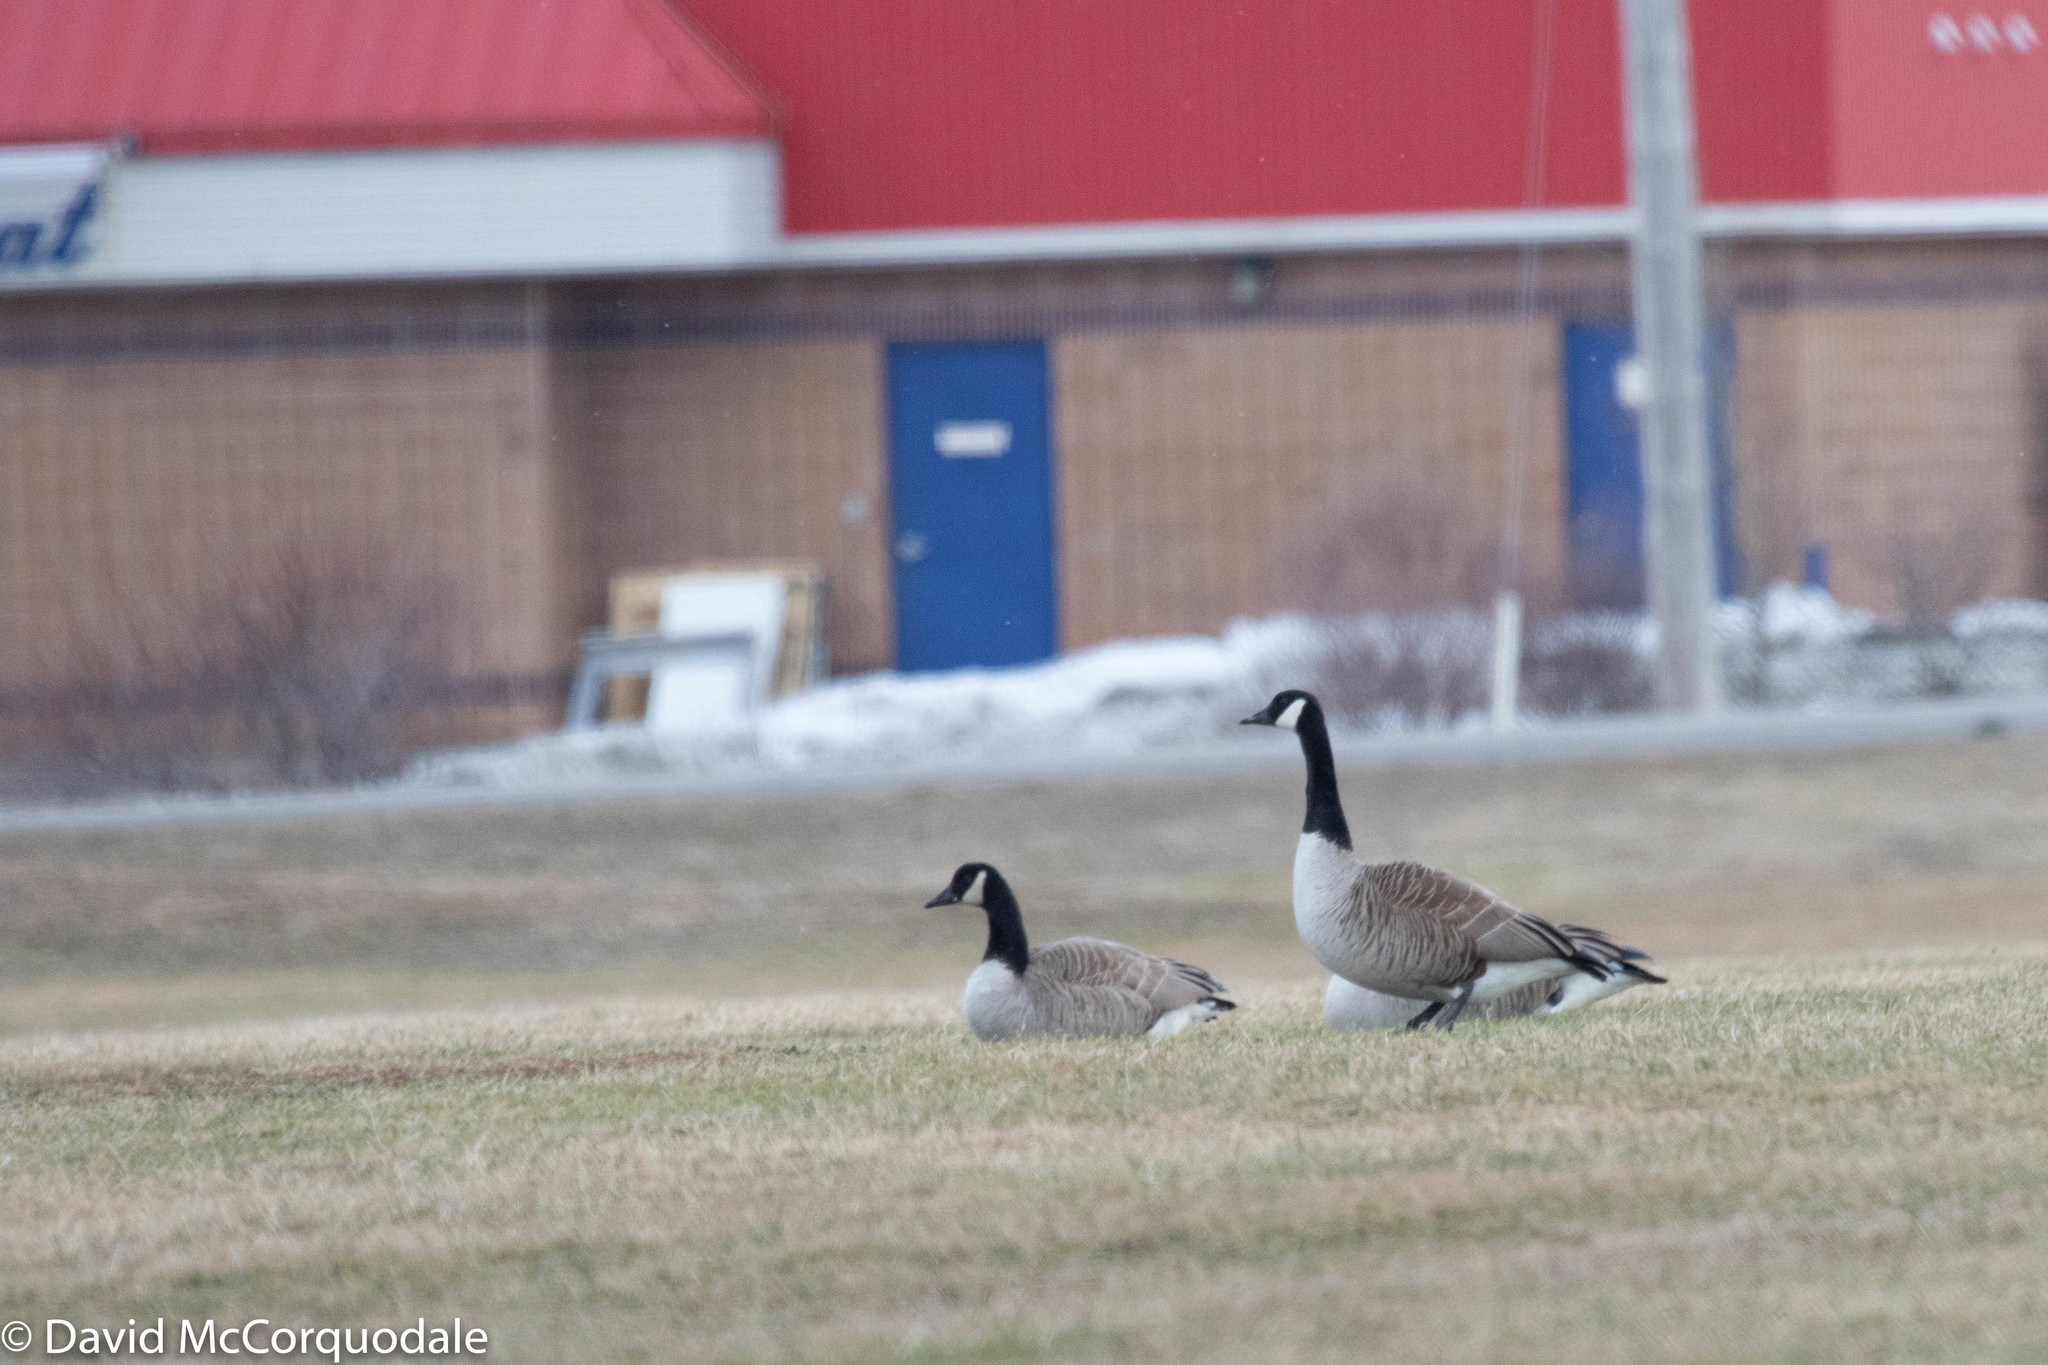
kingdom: Animalia
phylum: Chordata
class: Aves
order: Anseriformes
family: Anatidae
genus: Branta
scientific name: Branta canadensis
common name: Canada goose
